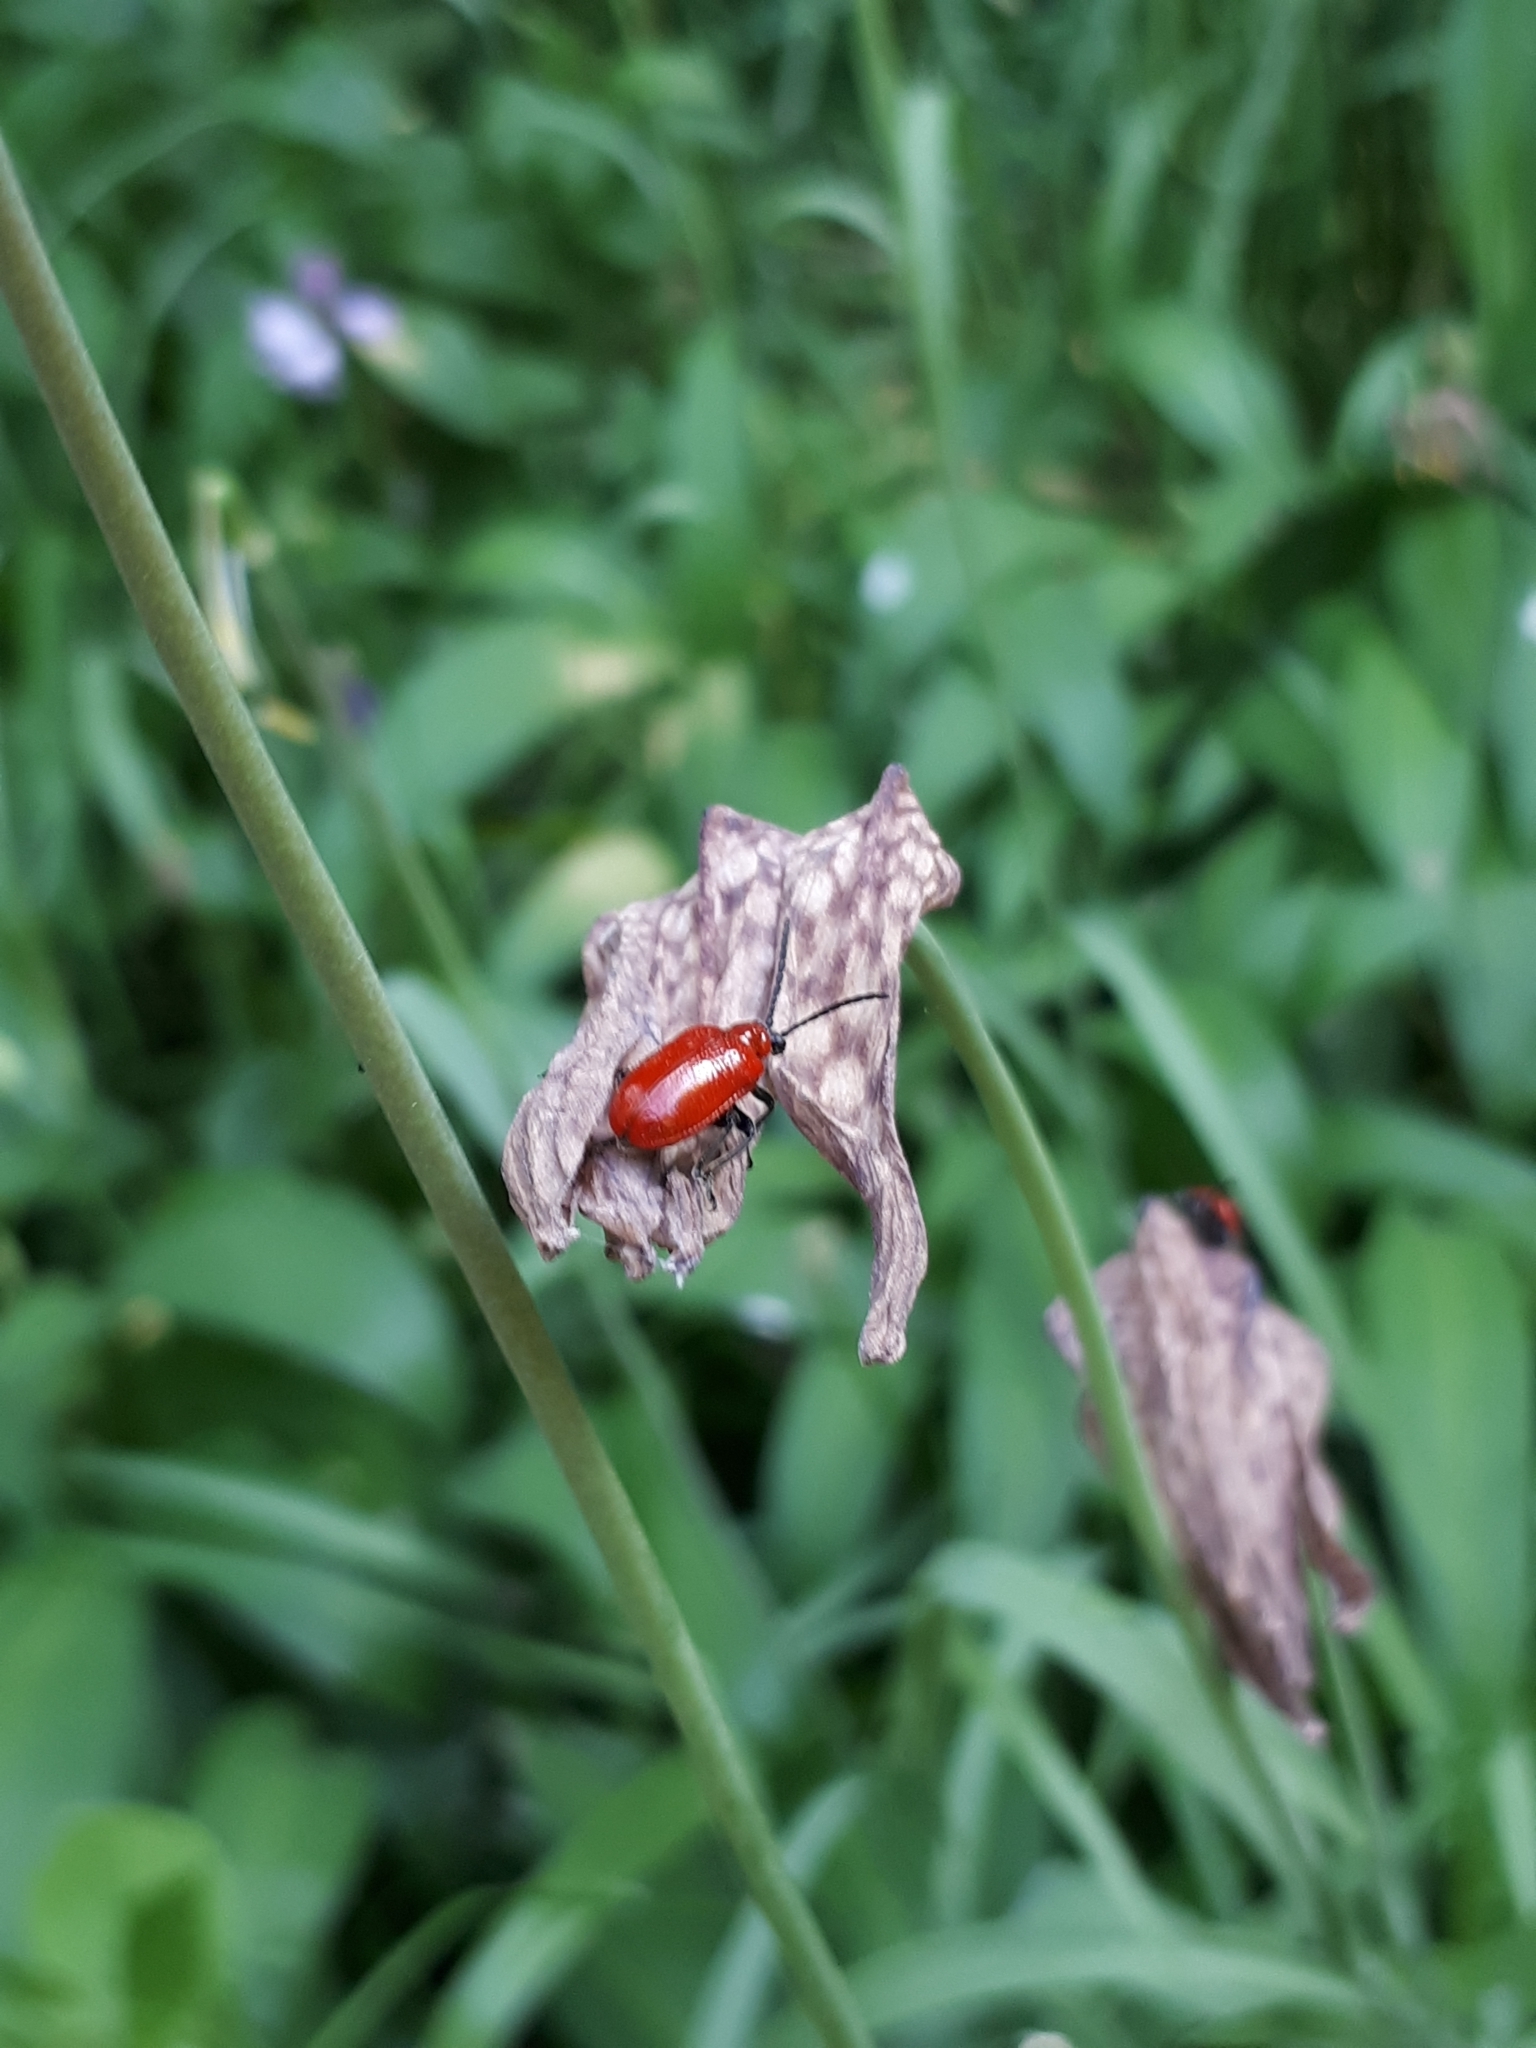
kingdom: Animalia
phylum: Arthropoda
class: Insecta
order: Coleoptera
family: Chrysomelidae
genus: Lilioceris
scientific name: Lilioceris lilii
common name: Lily beetle
